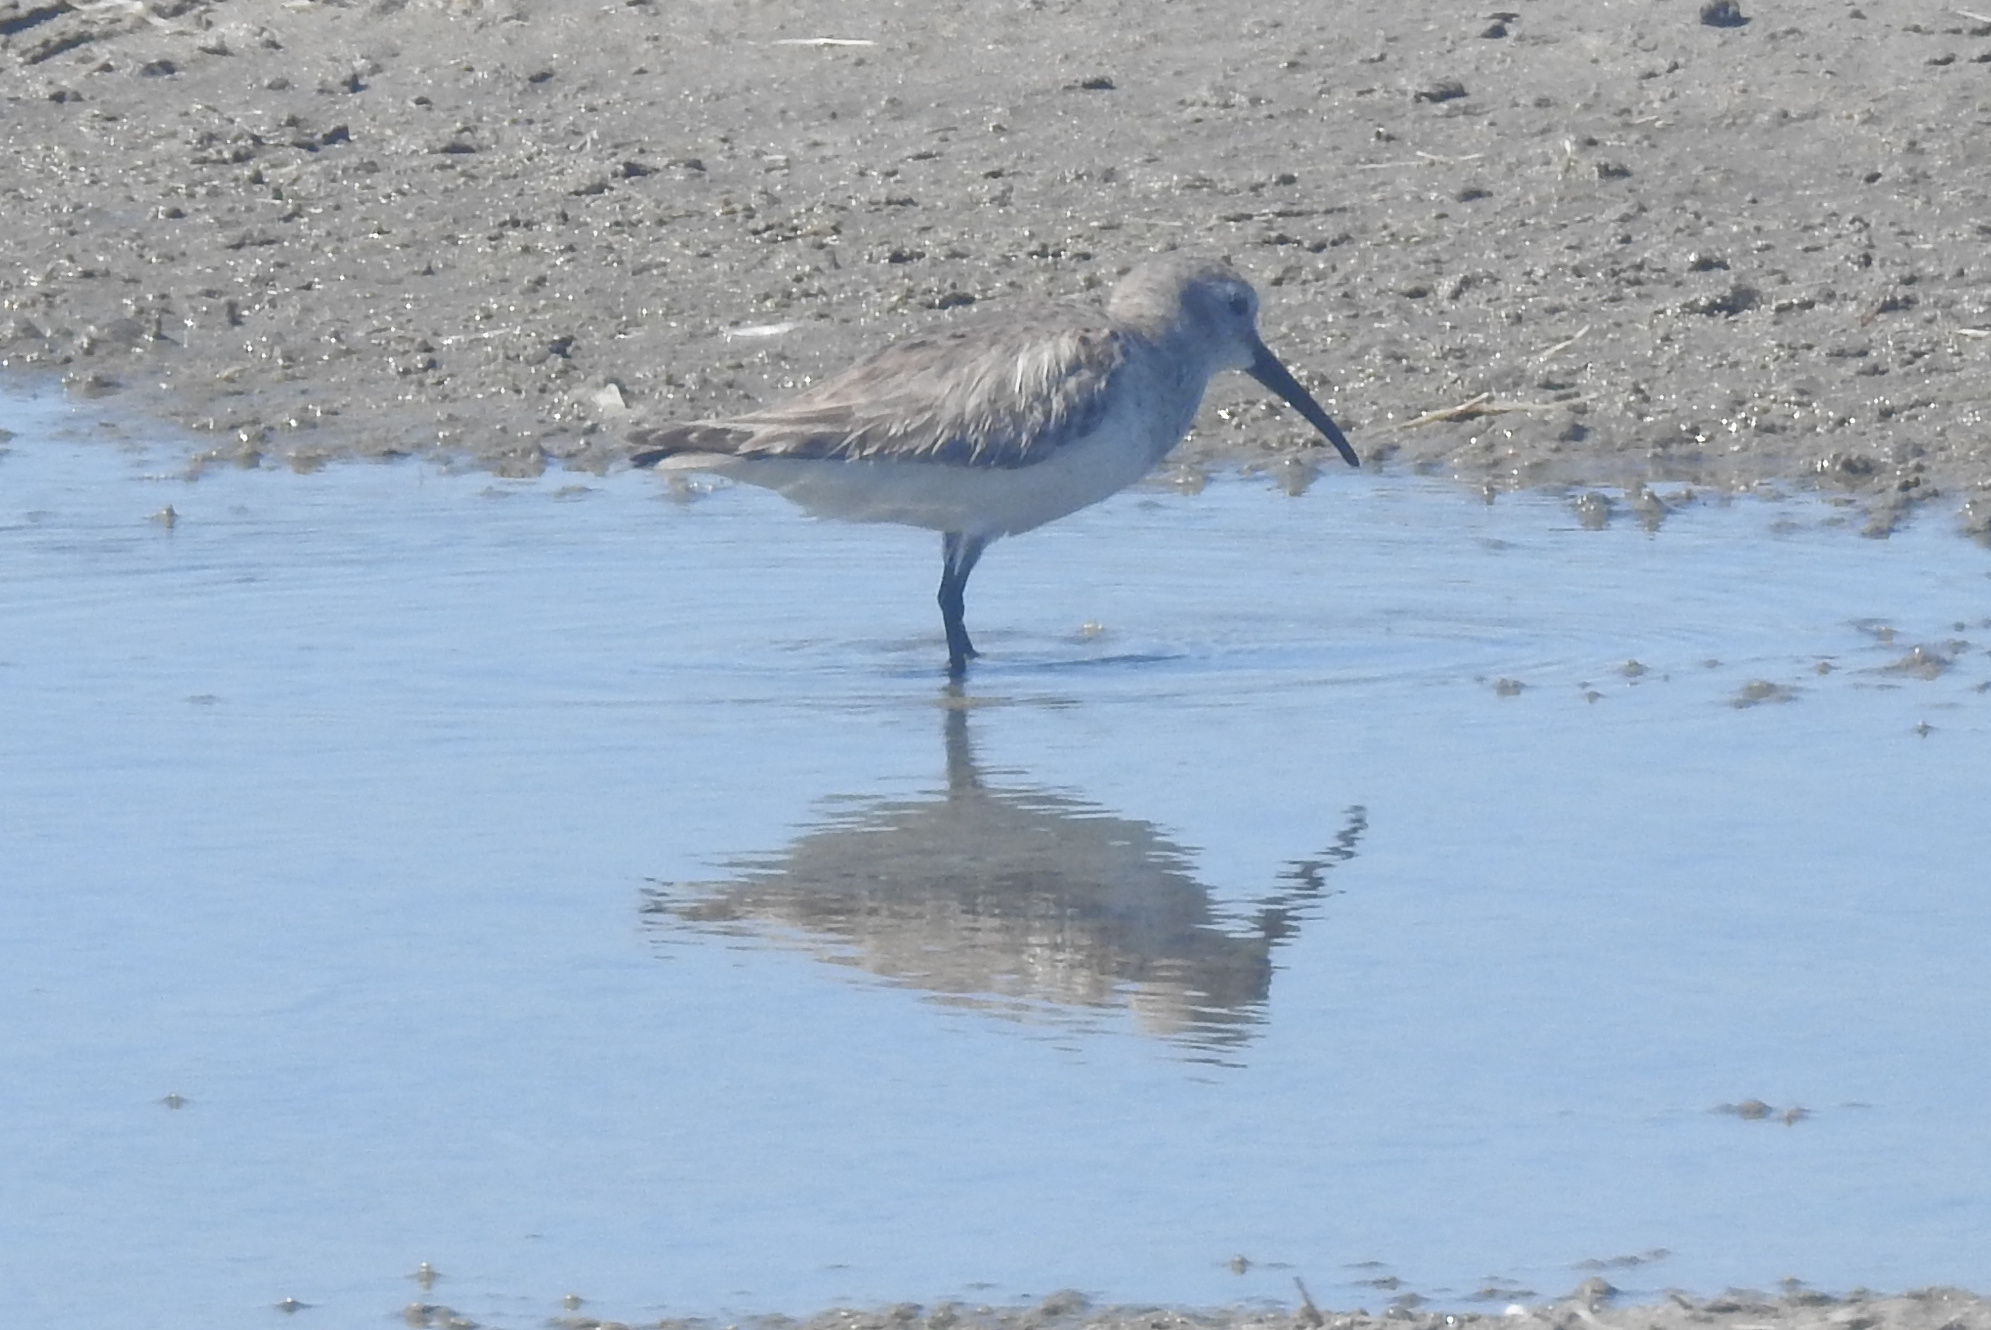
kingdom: Animalia
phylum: Chordata
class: Aves
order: Charadriiformes
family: Scolopacidae
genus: Calidris
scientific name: Calidris alpina
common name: Dunlin
